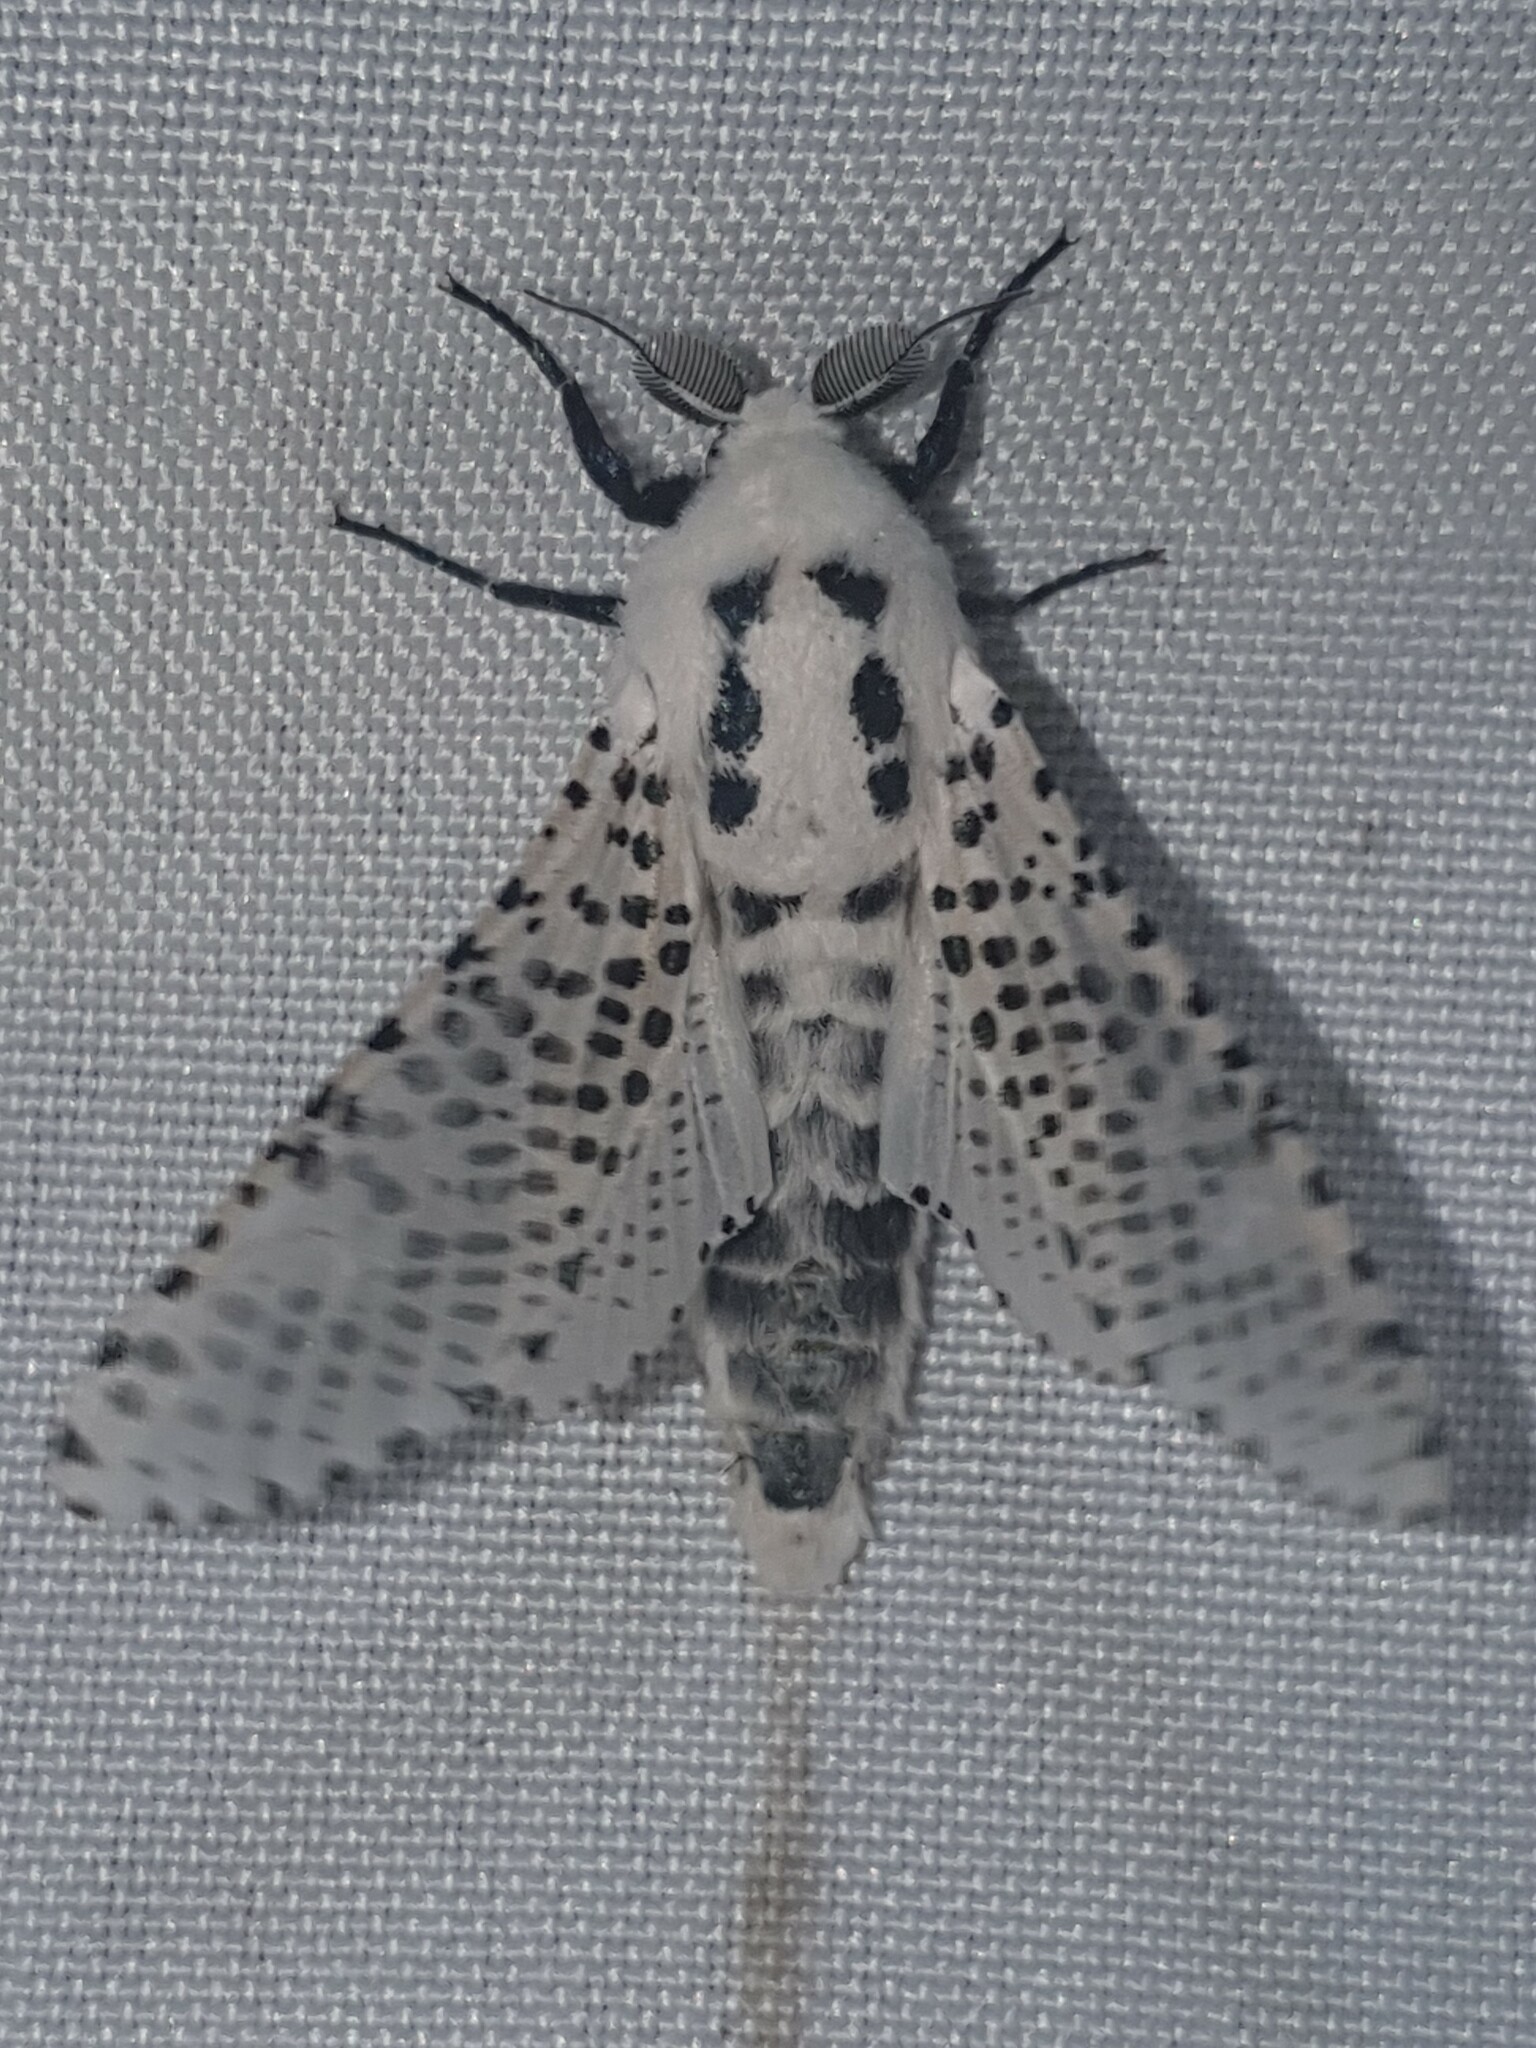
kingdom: Animalia
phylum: Arthropoda
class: Insecta
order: Lepidoptera
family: Cossidae
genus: Zeuzera
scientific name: Zeuzera pyrina
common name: Leopard moth
